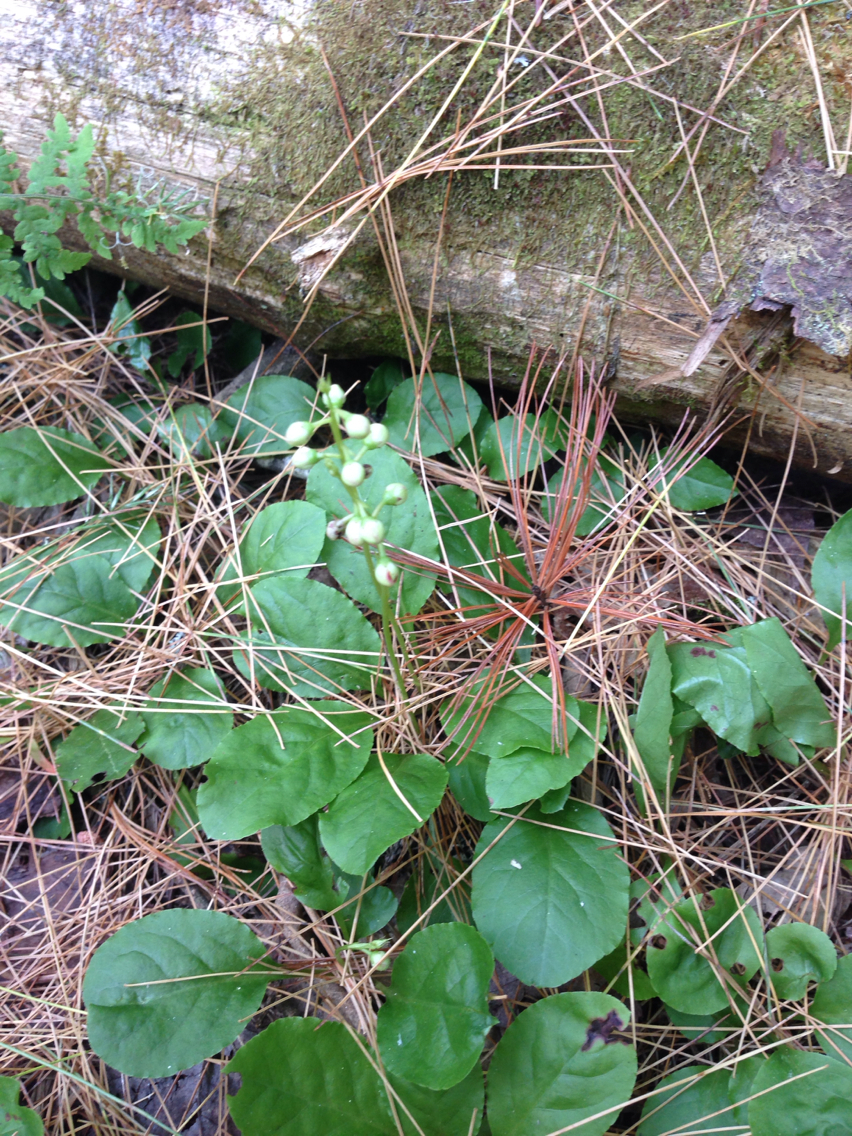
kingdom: Plantae
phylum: Tracheophyta
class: Magnoliopsida
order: Ericales
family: Ericaceae
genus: Pyrola
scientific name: Pyrola elliptica
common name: Shinleaf
